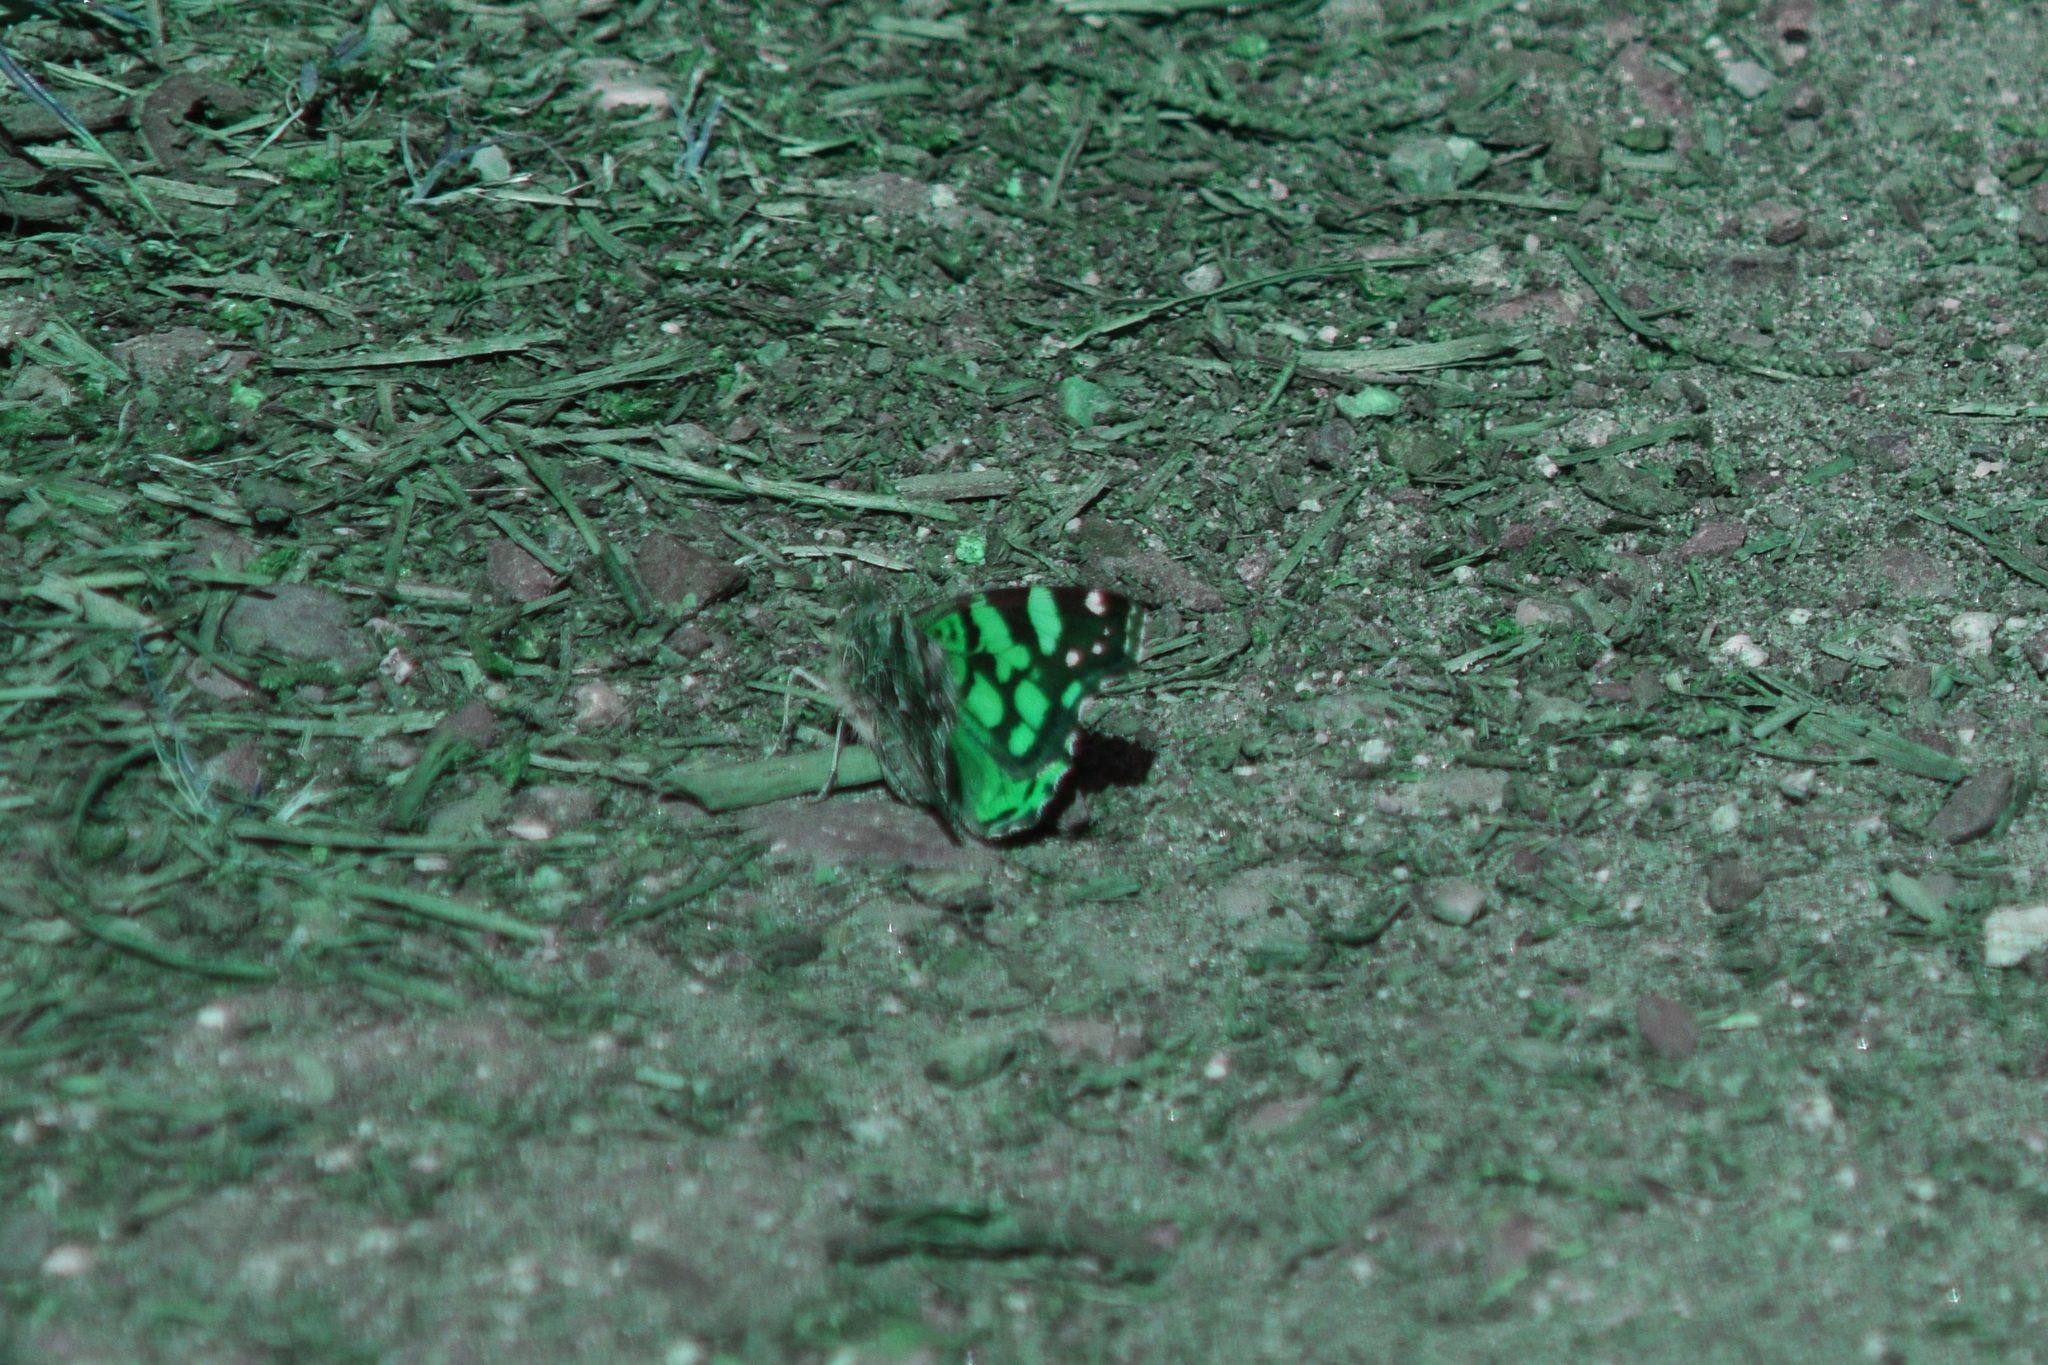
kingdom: Animalia
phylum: Arthropoda
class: Insecta
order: Lepidoptera
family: Nymphalidae
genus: Vanessa
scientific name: Vanessa annabella
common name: West coast lady
